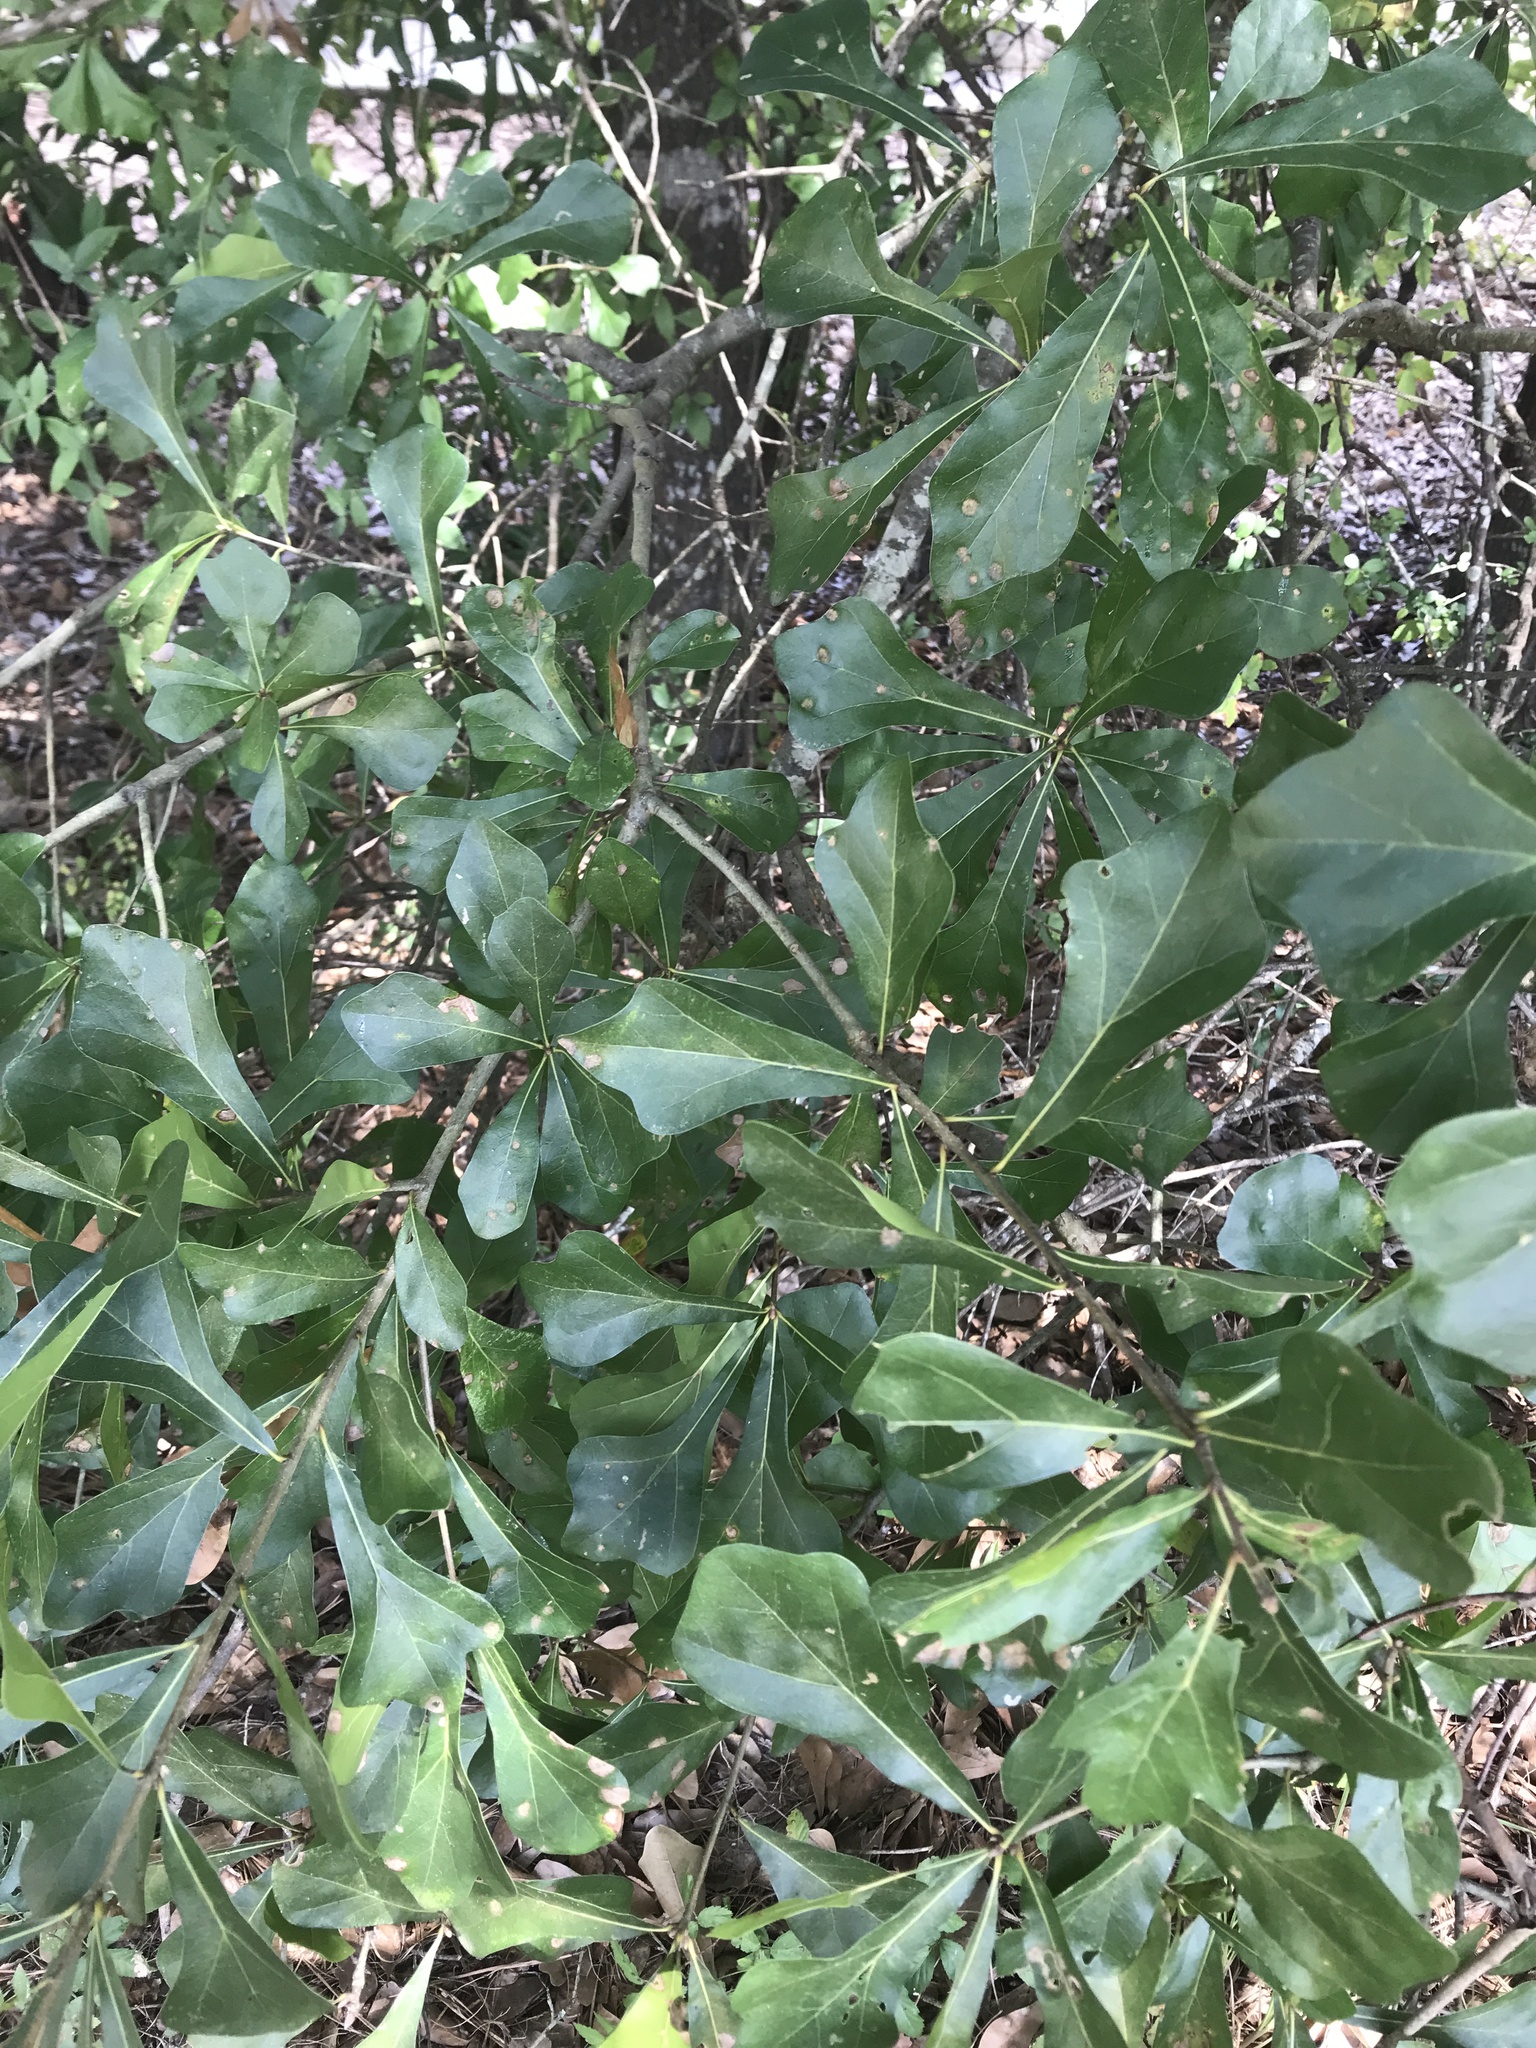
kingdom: Plantae
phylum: Tracheophyta
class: Magnoliopsida
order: Fagales
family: Fagaceae
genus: Quercus
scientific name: Quercus nigra
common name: Water oak
